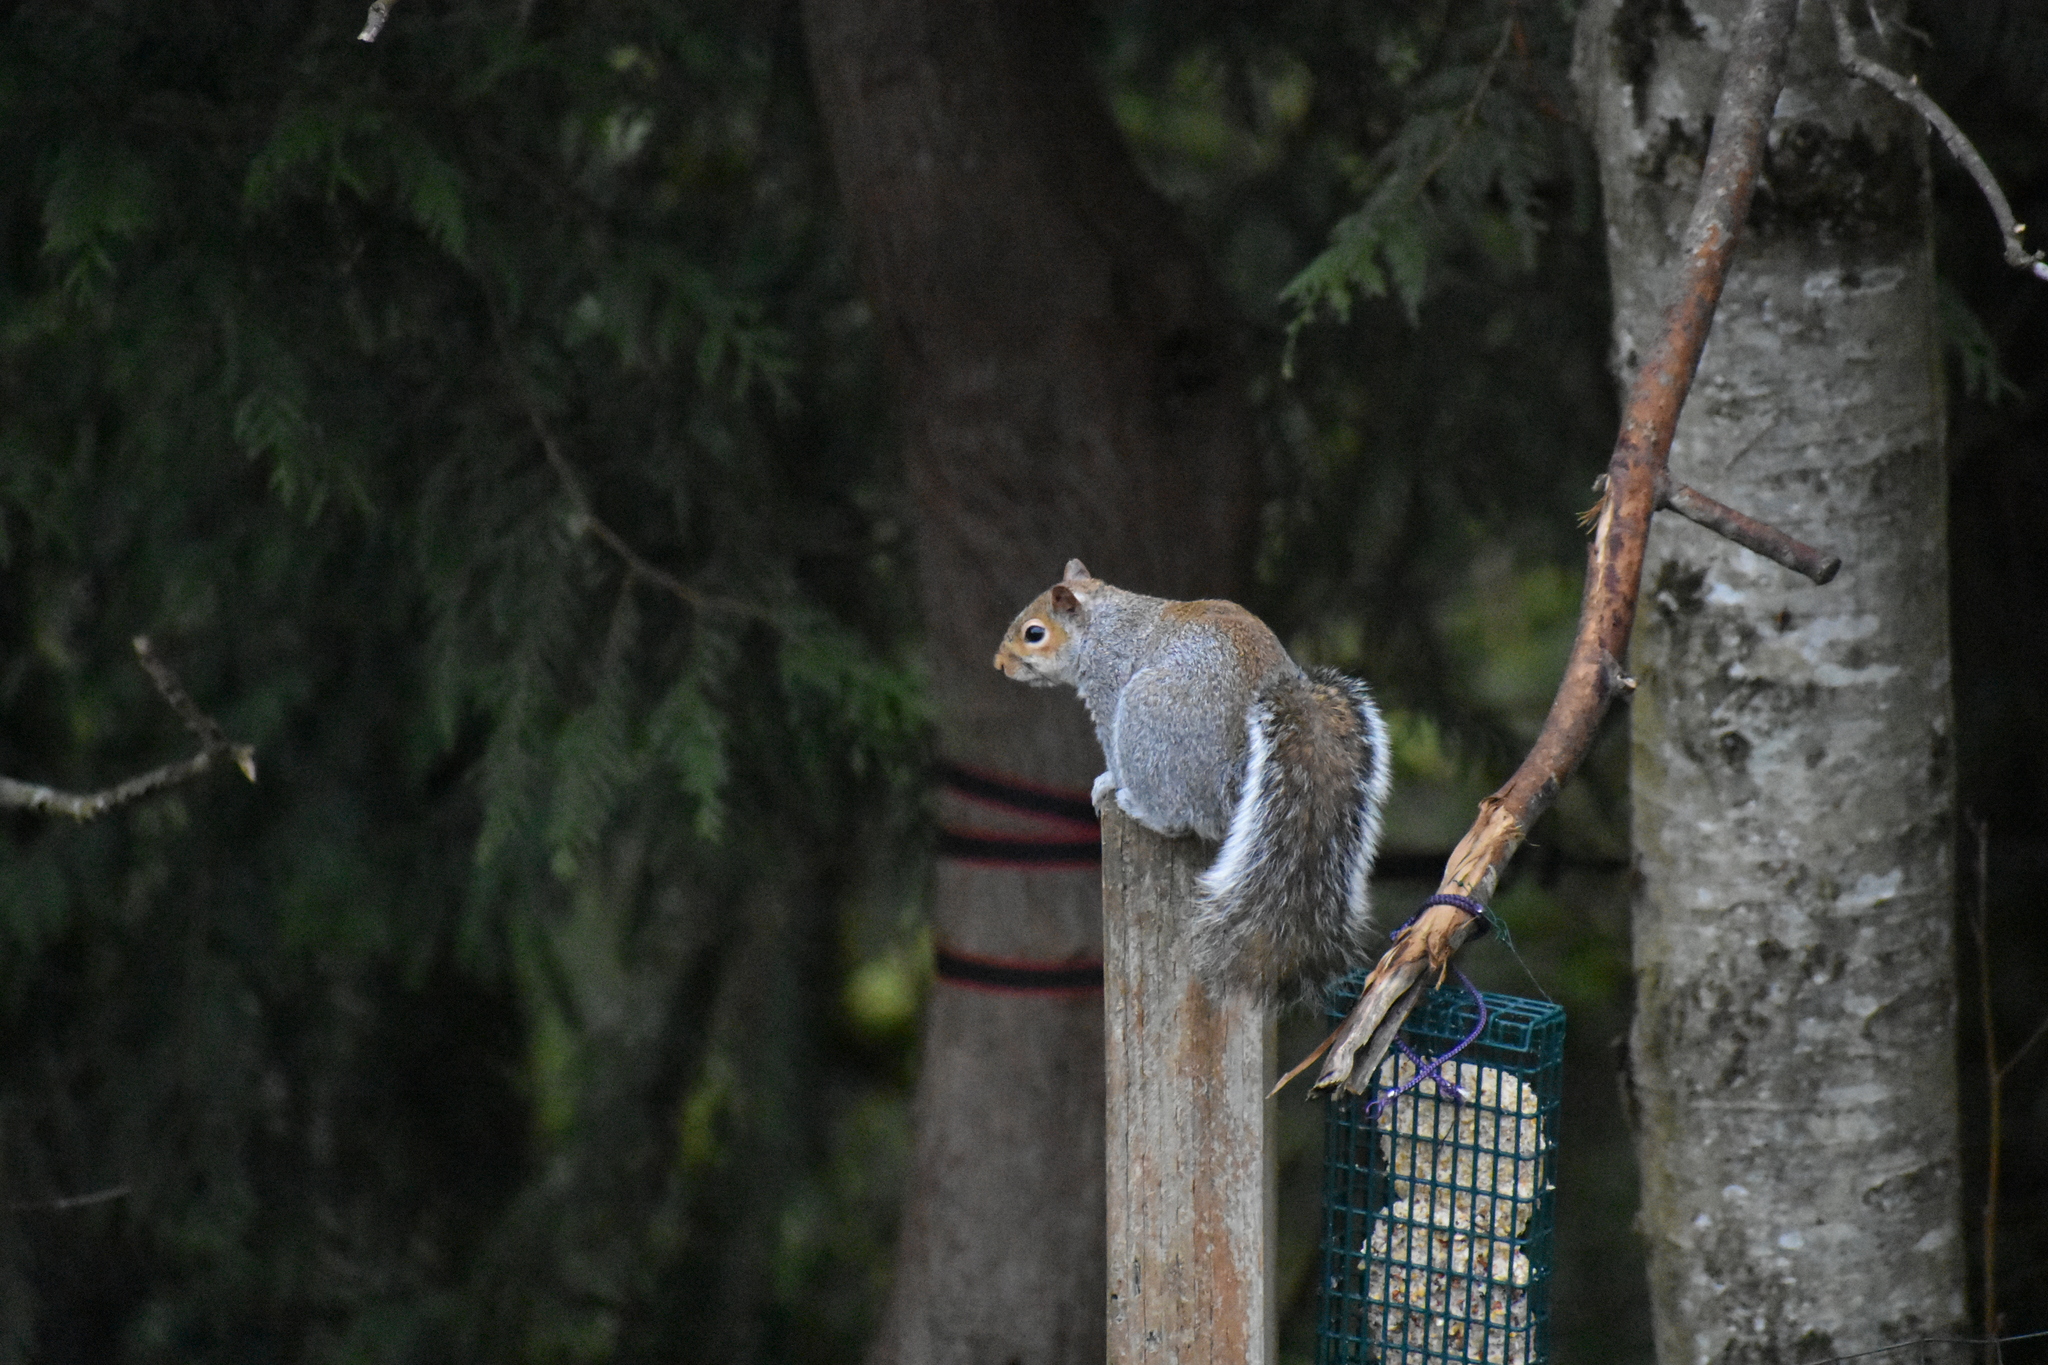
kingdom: Animalia
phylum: Chordata
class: Mammalia
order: Rodentia
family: Sciuridae
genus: Sciurus
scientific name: Sciurus carolinensis
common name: Eastern gray squirrel
